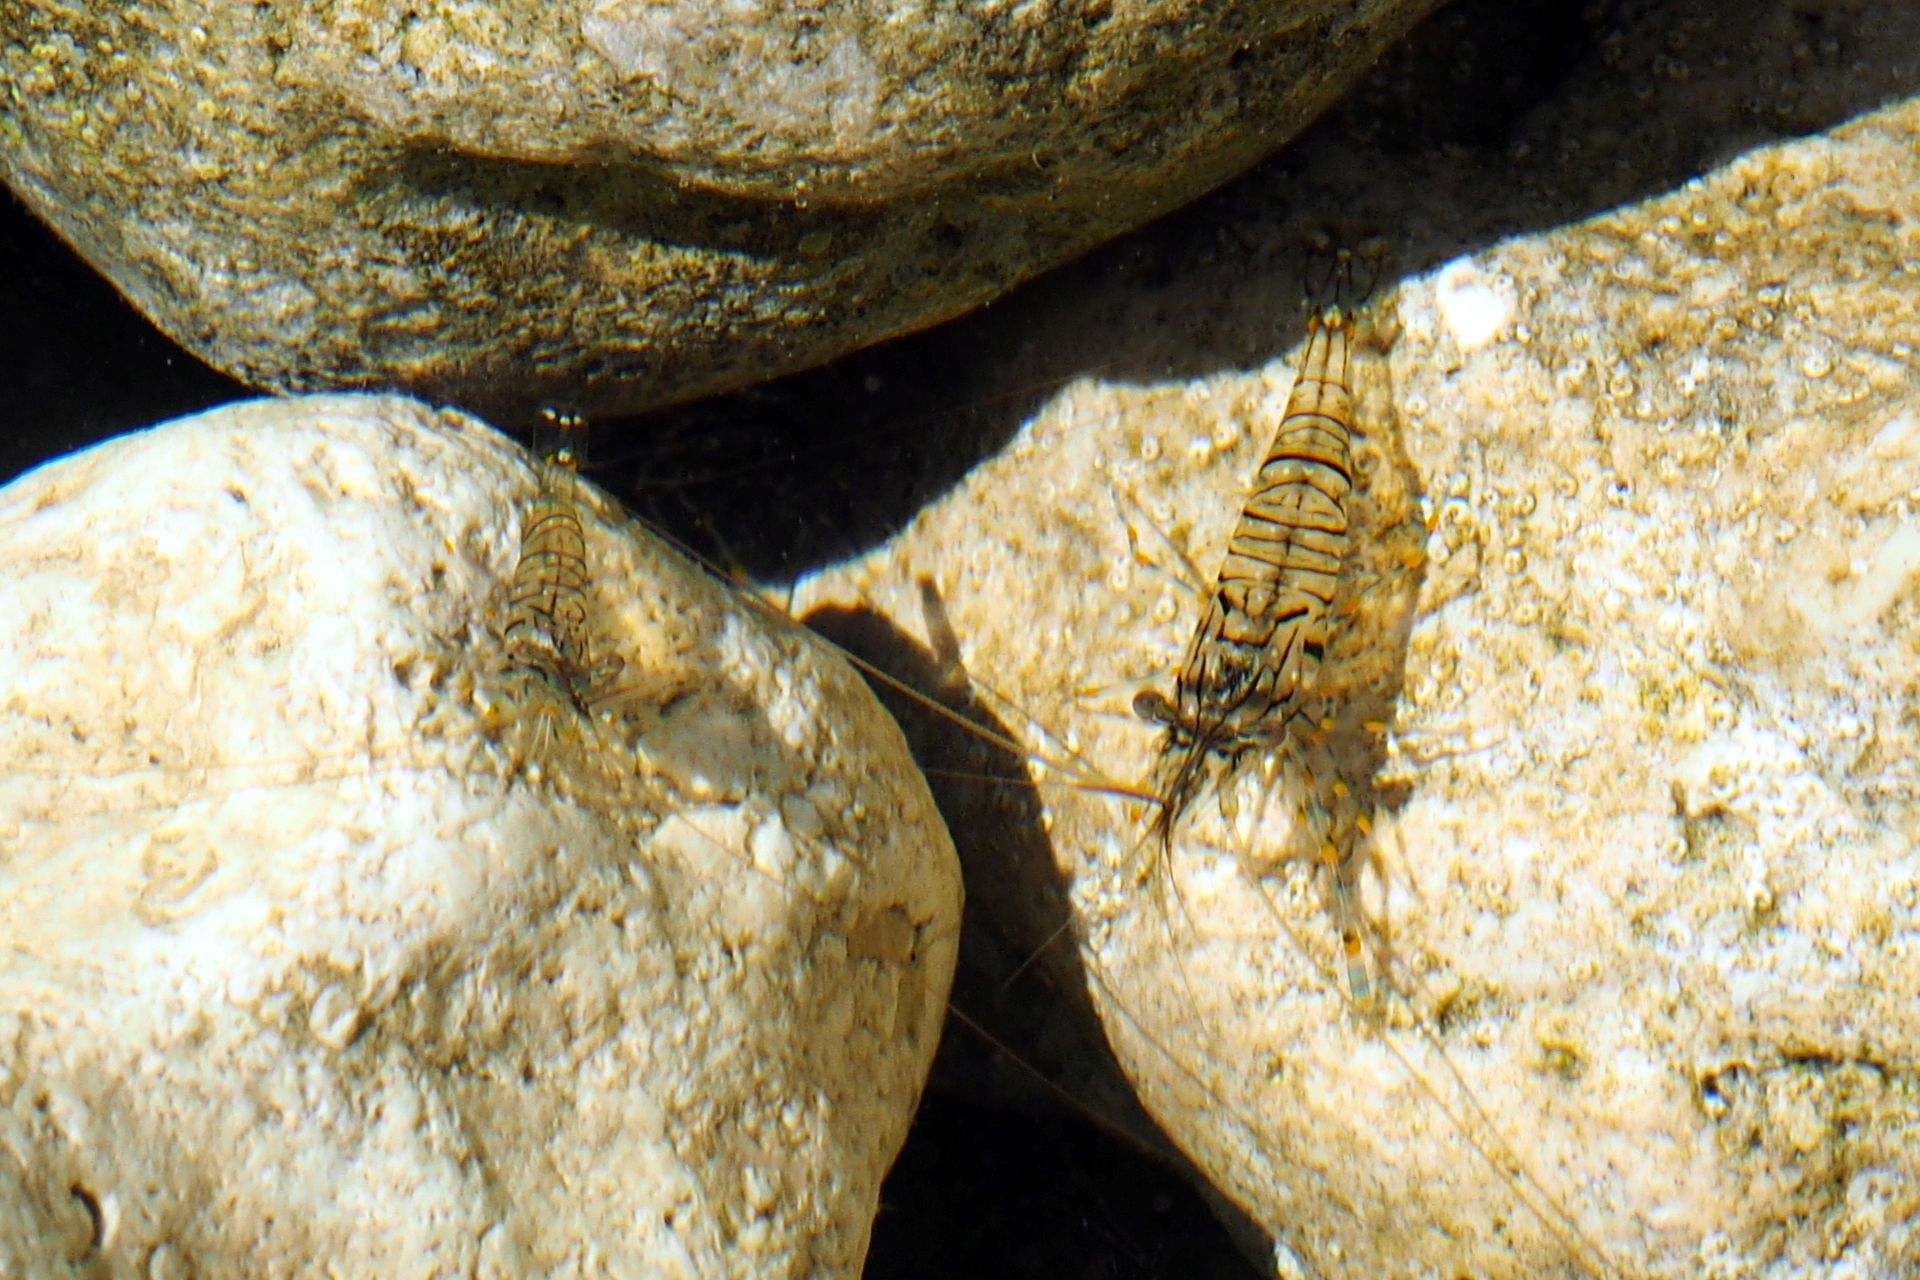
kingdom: Animalia
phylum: Arthropoda
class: Malacostraca
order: Decapoda
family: Palaemonidae
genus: Palaemon
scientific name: Palaemon elegans
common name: Grass prawm
